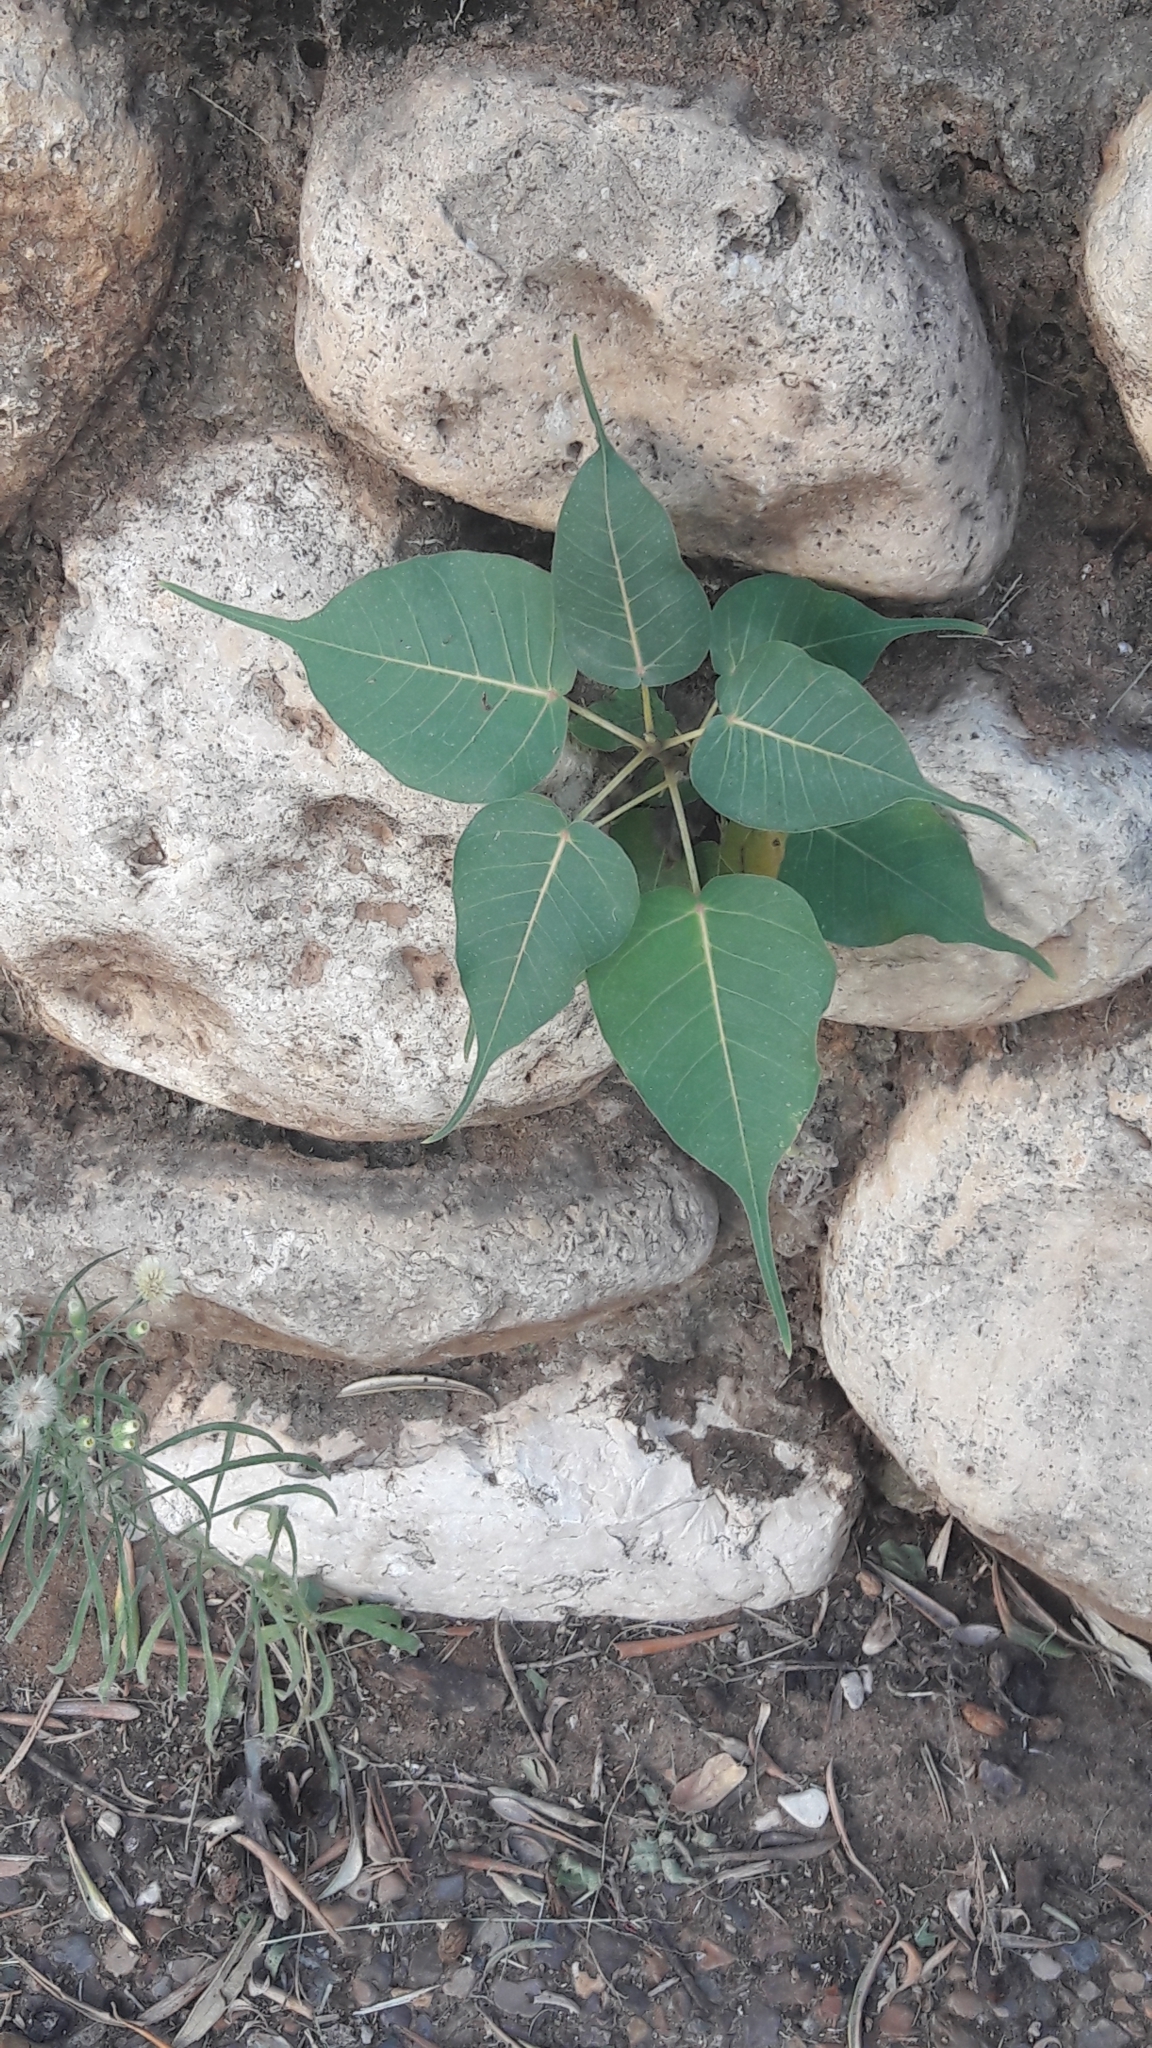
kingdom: Plantae
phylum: Tracheophyta
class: Magnoliopsida
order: Rosales
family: Moraceae
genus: Ficus
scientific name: Ficus religiosa
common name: Bodhi tree
